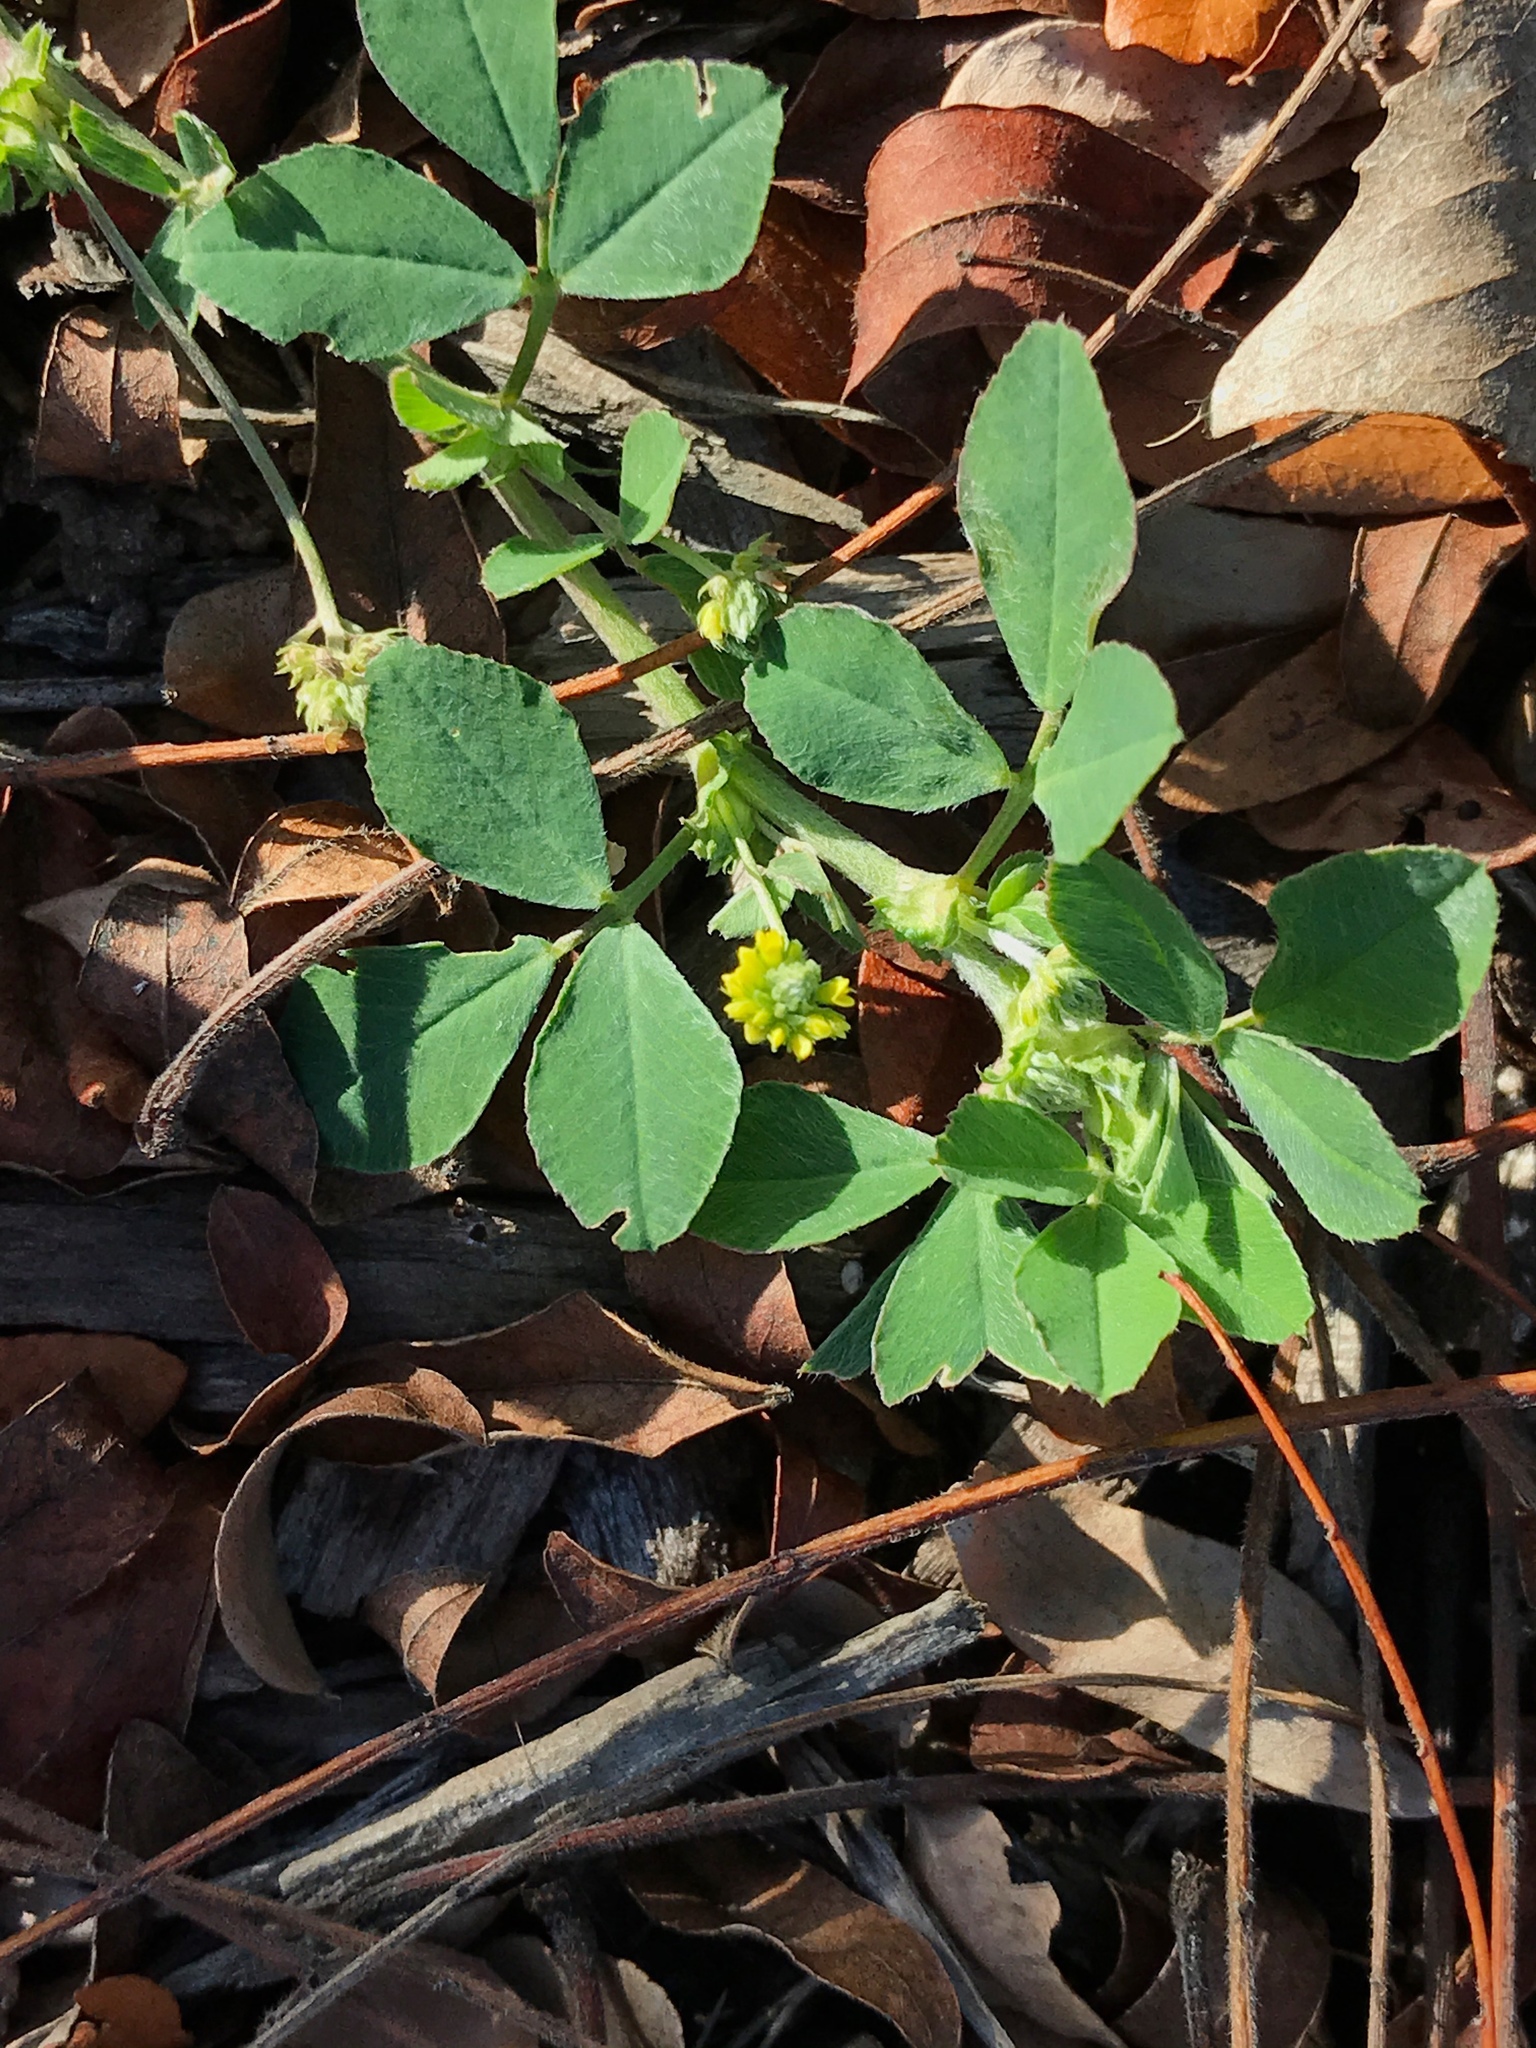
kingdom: Plantae
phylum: Tracheophyta
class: Magnoliopsida
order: Fabales
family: Fabaceae
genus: Medicago
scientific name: Medicago lupulina
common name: Black medick
